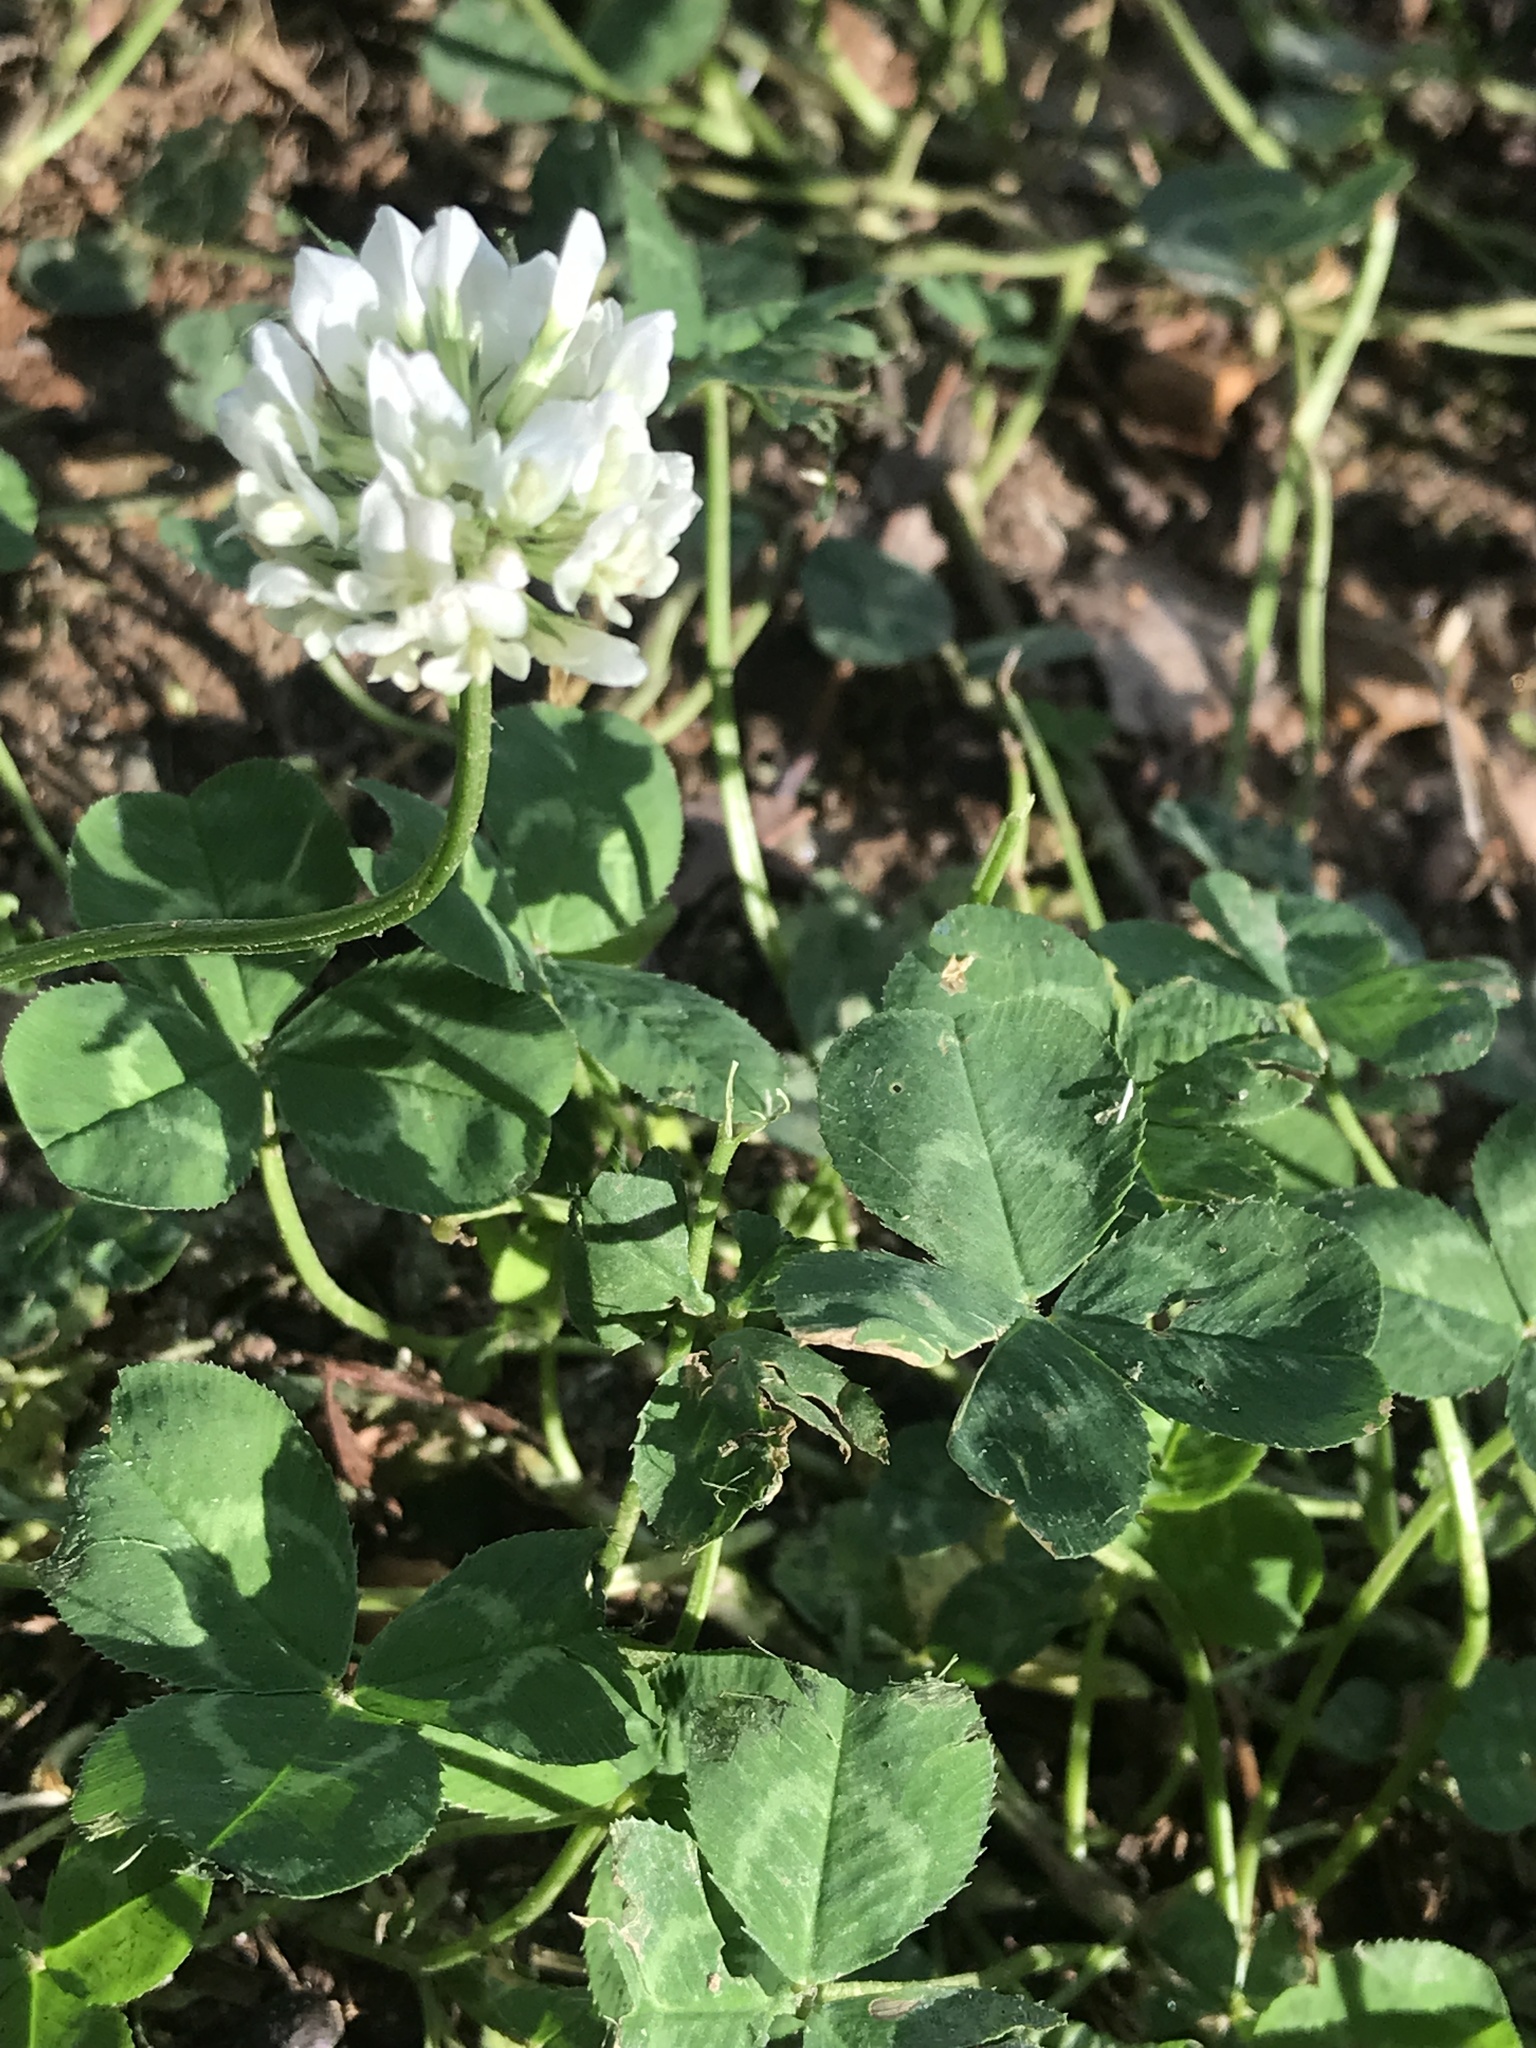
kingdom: Plantae
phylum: Tracheophyta
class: Magnoliopsida
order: Fabales
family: Fabaceae
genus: Trifolium
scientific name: Trifolium repens
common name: White clover
